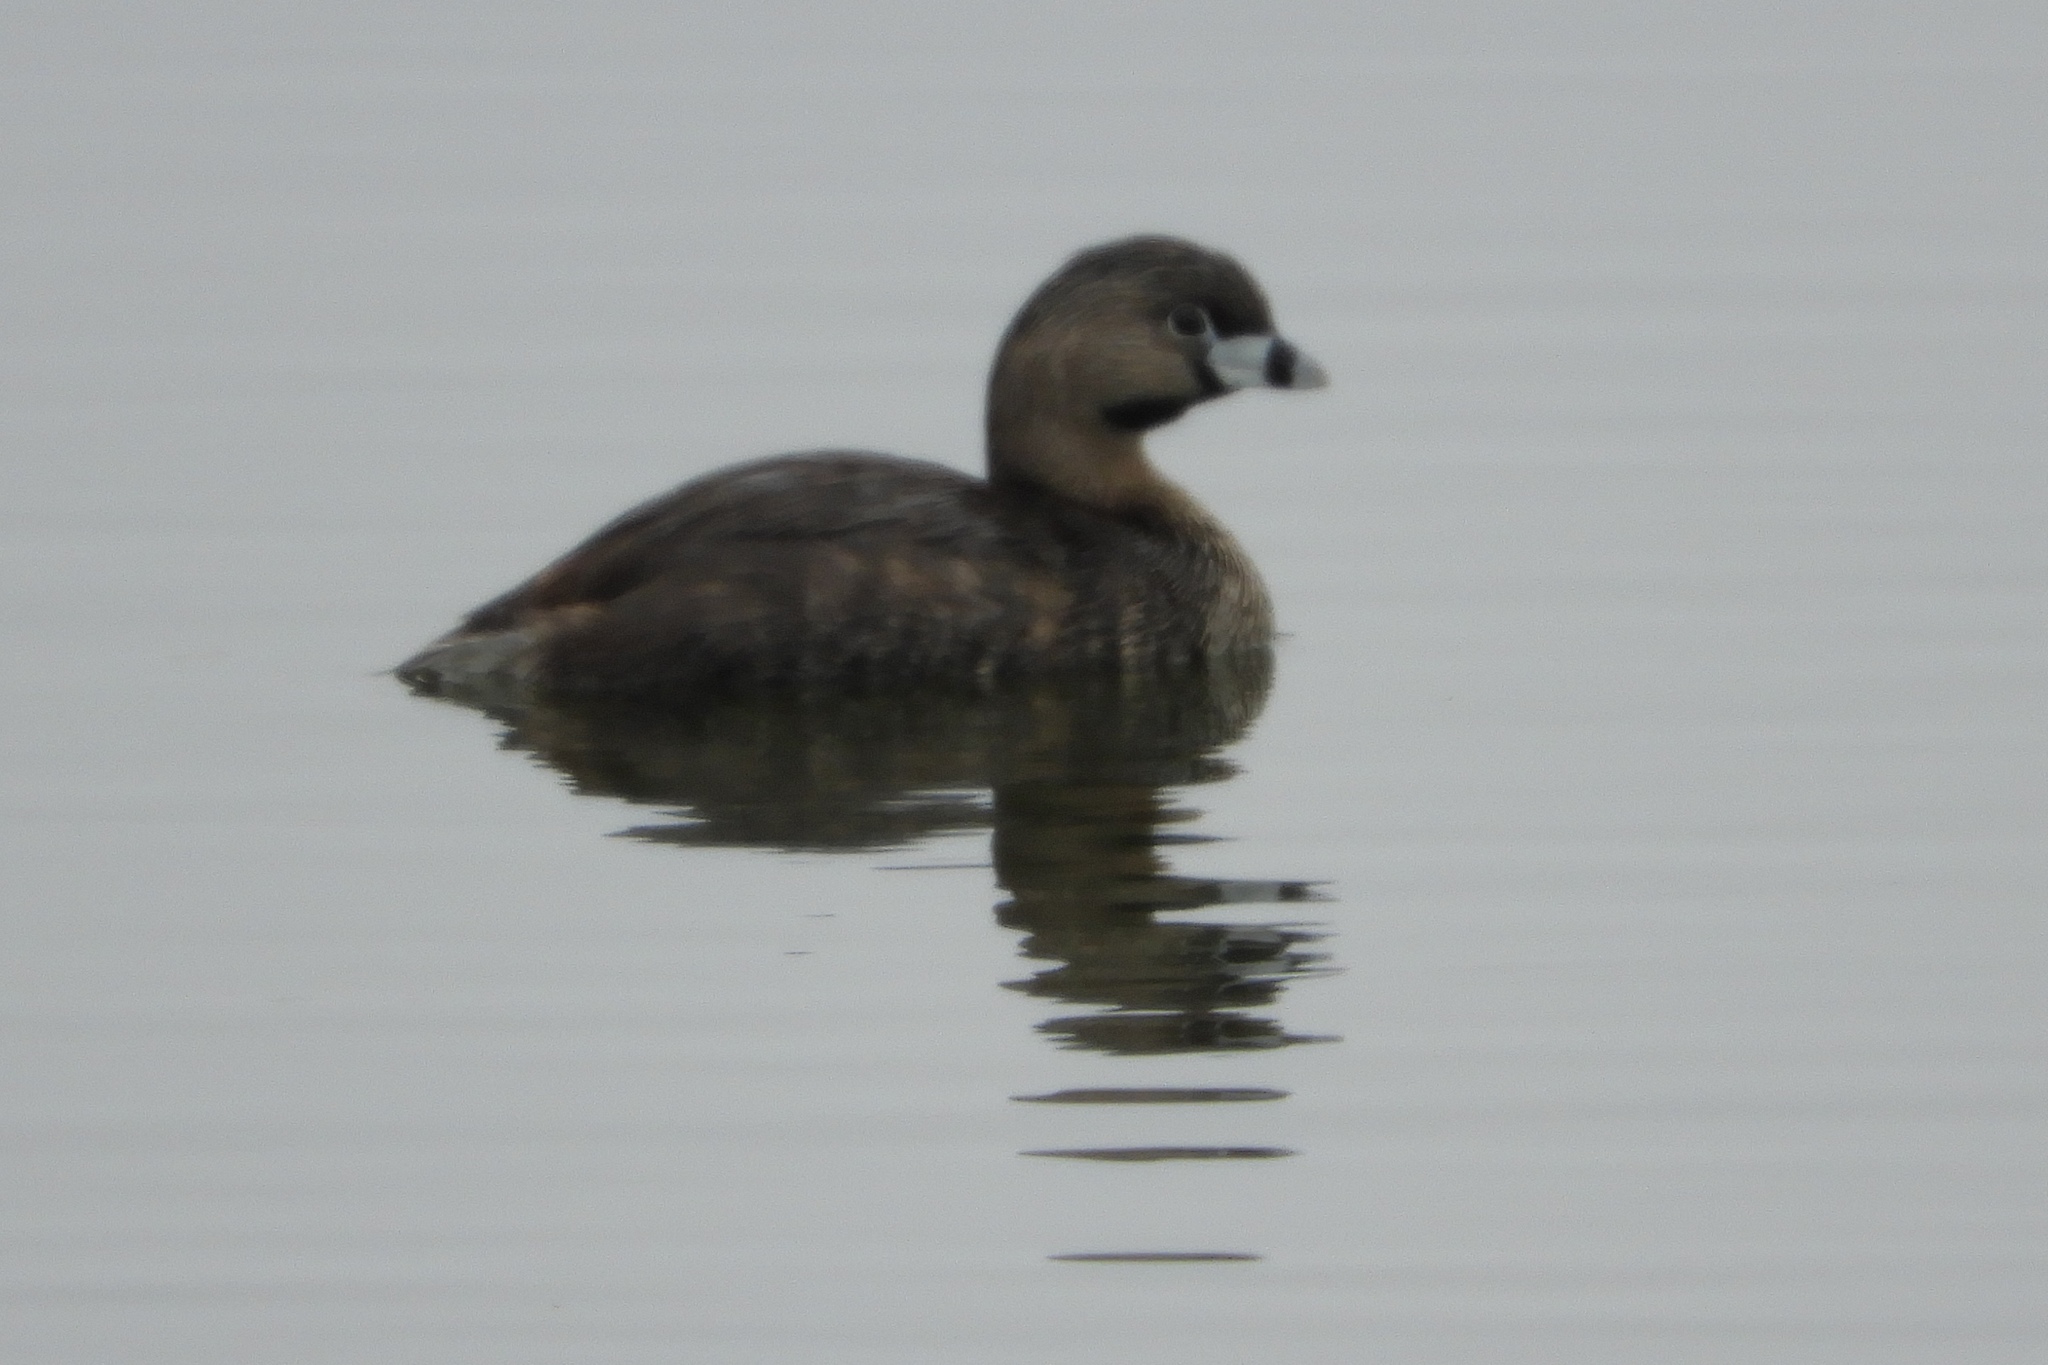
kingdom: Animalia
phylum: Chordata
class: Aves
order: Podicipediformes
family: Podicipedidae
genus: Podilymbus
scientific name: Podilymbus podiceps
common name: Pied-billed grebe
